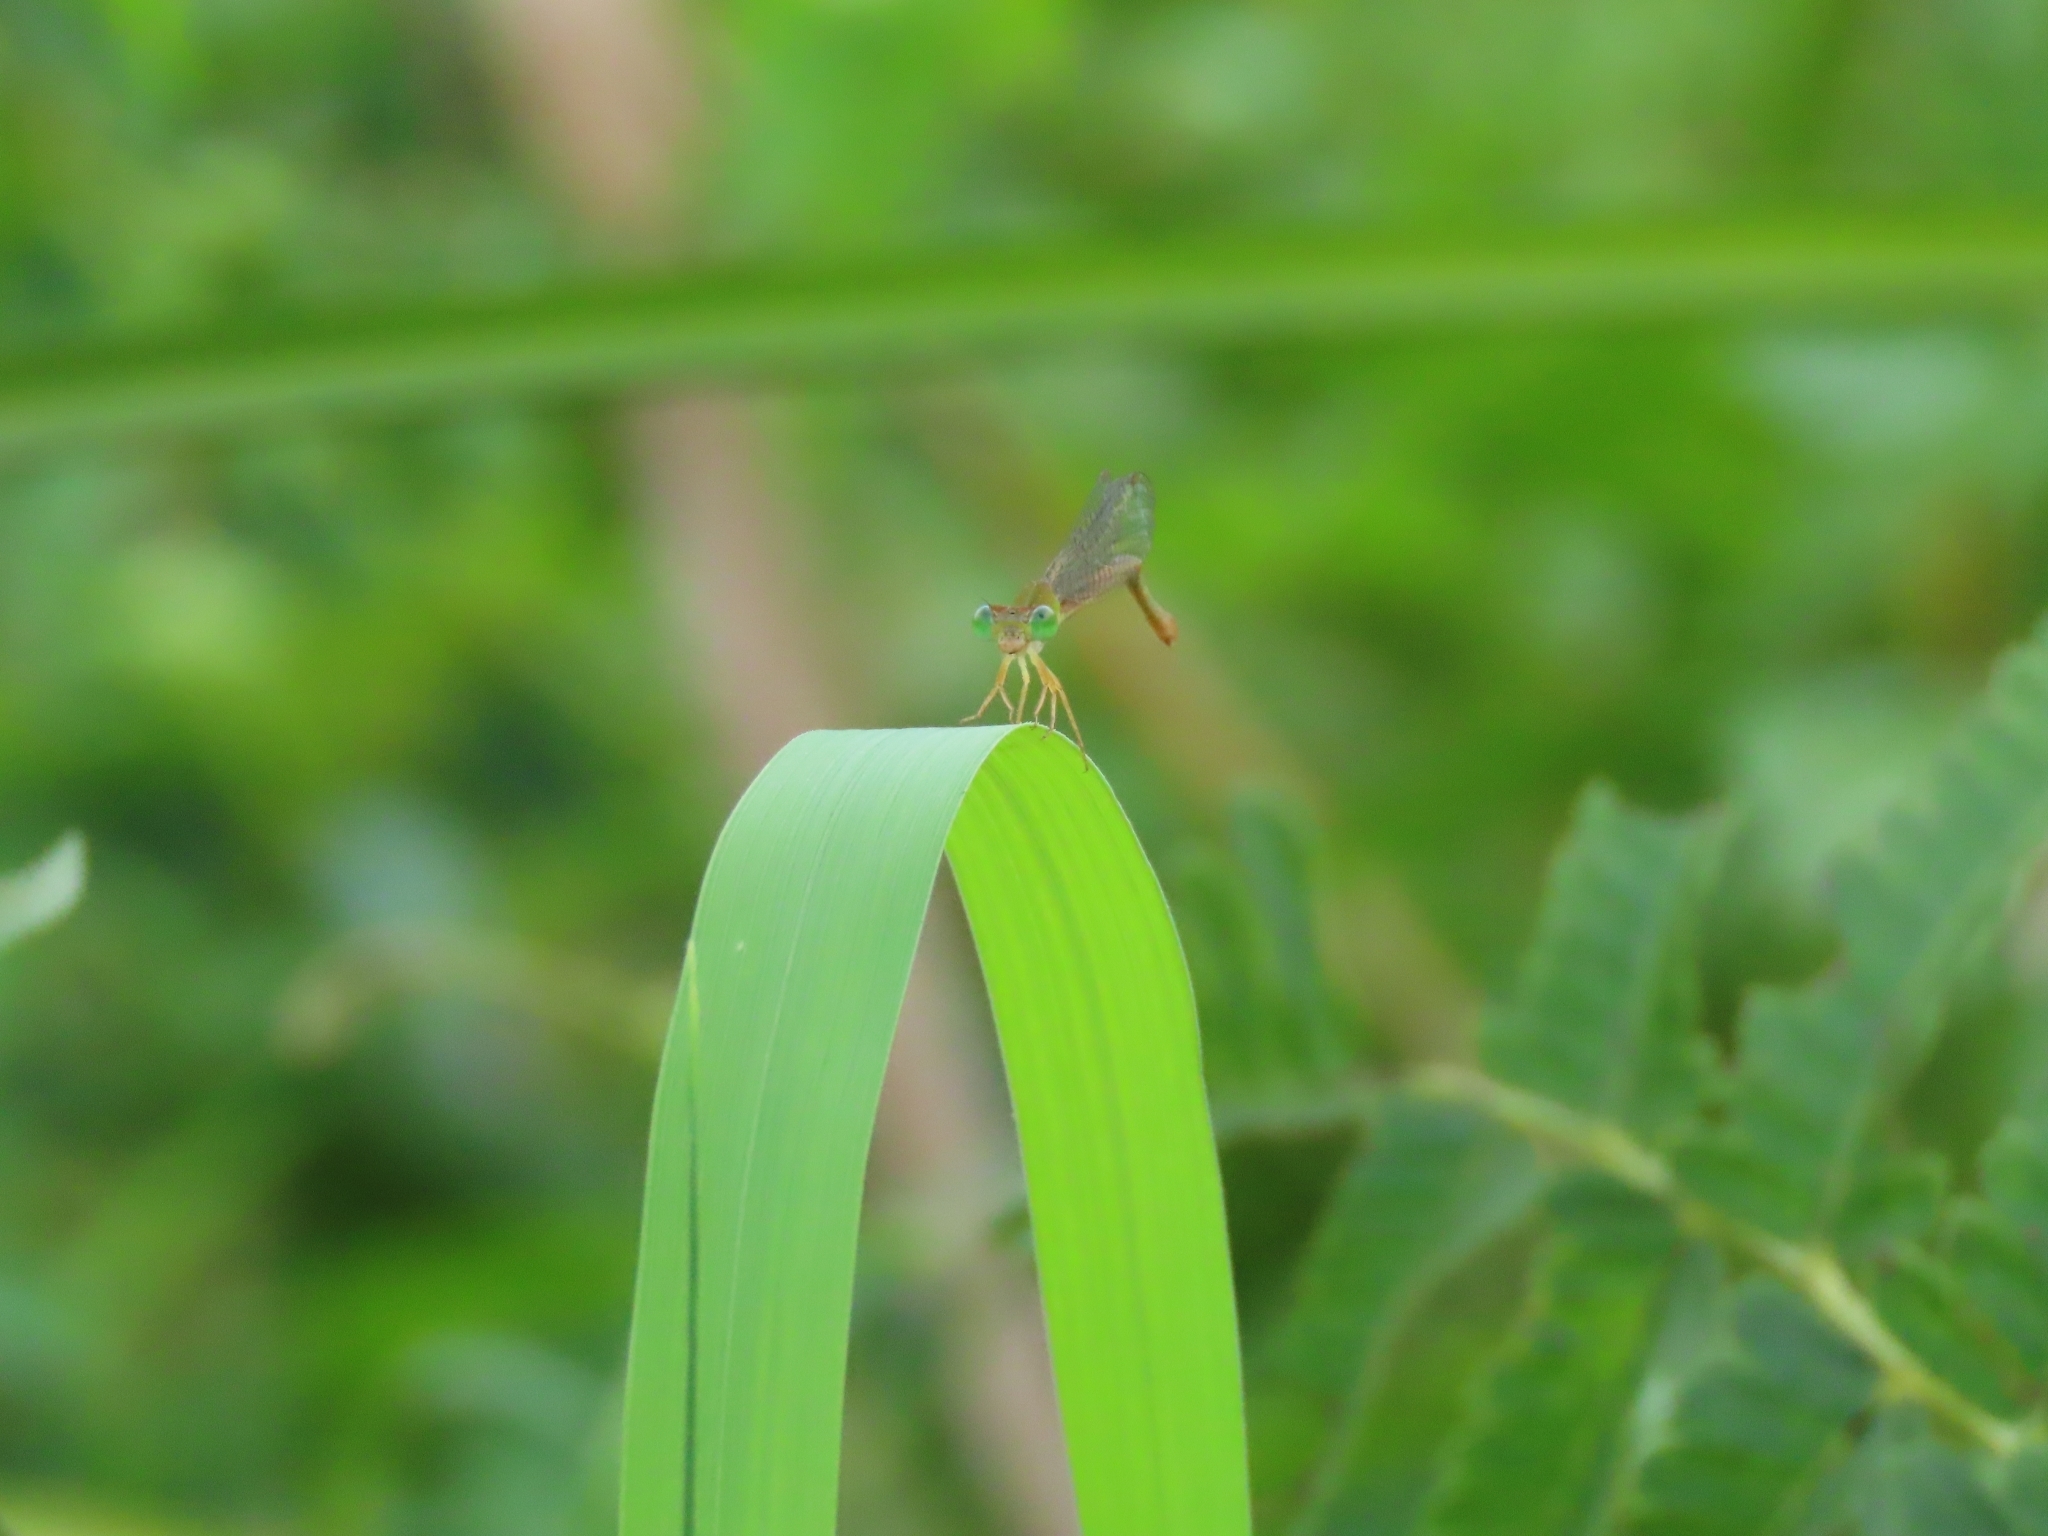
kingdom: Animalia
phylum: Arthropoda
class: Insecta
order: Odonata
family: Coenagrionidae
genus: Ceriagrion
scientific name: Ceriagrion auranticum
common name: Orange-tailed sprite
